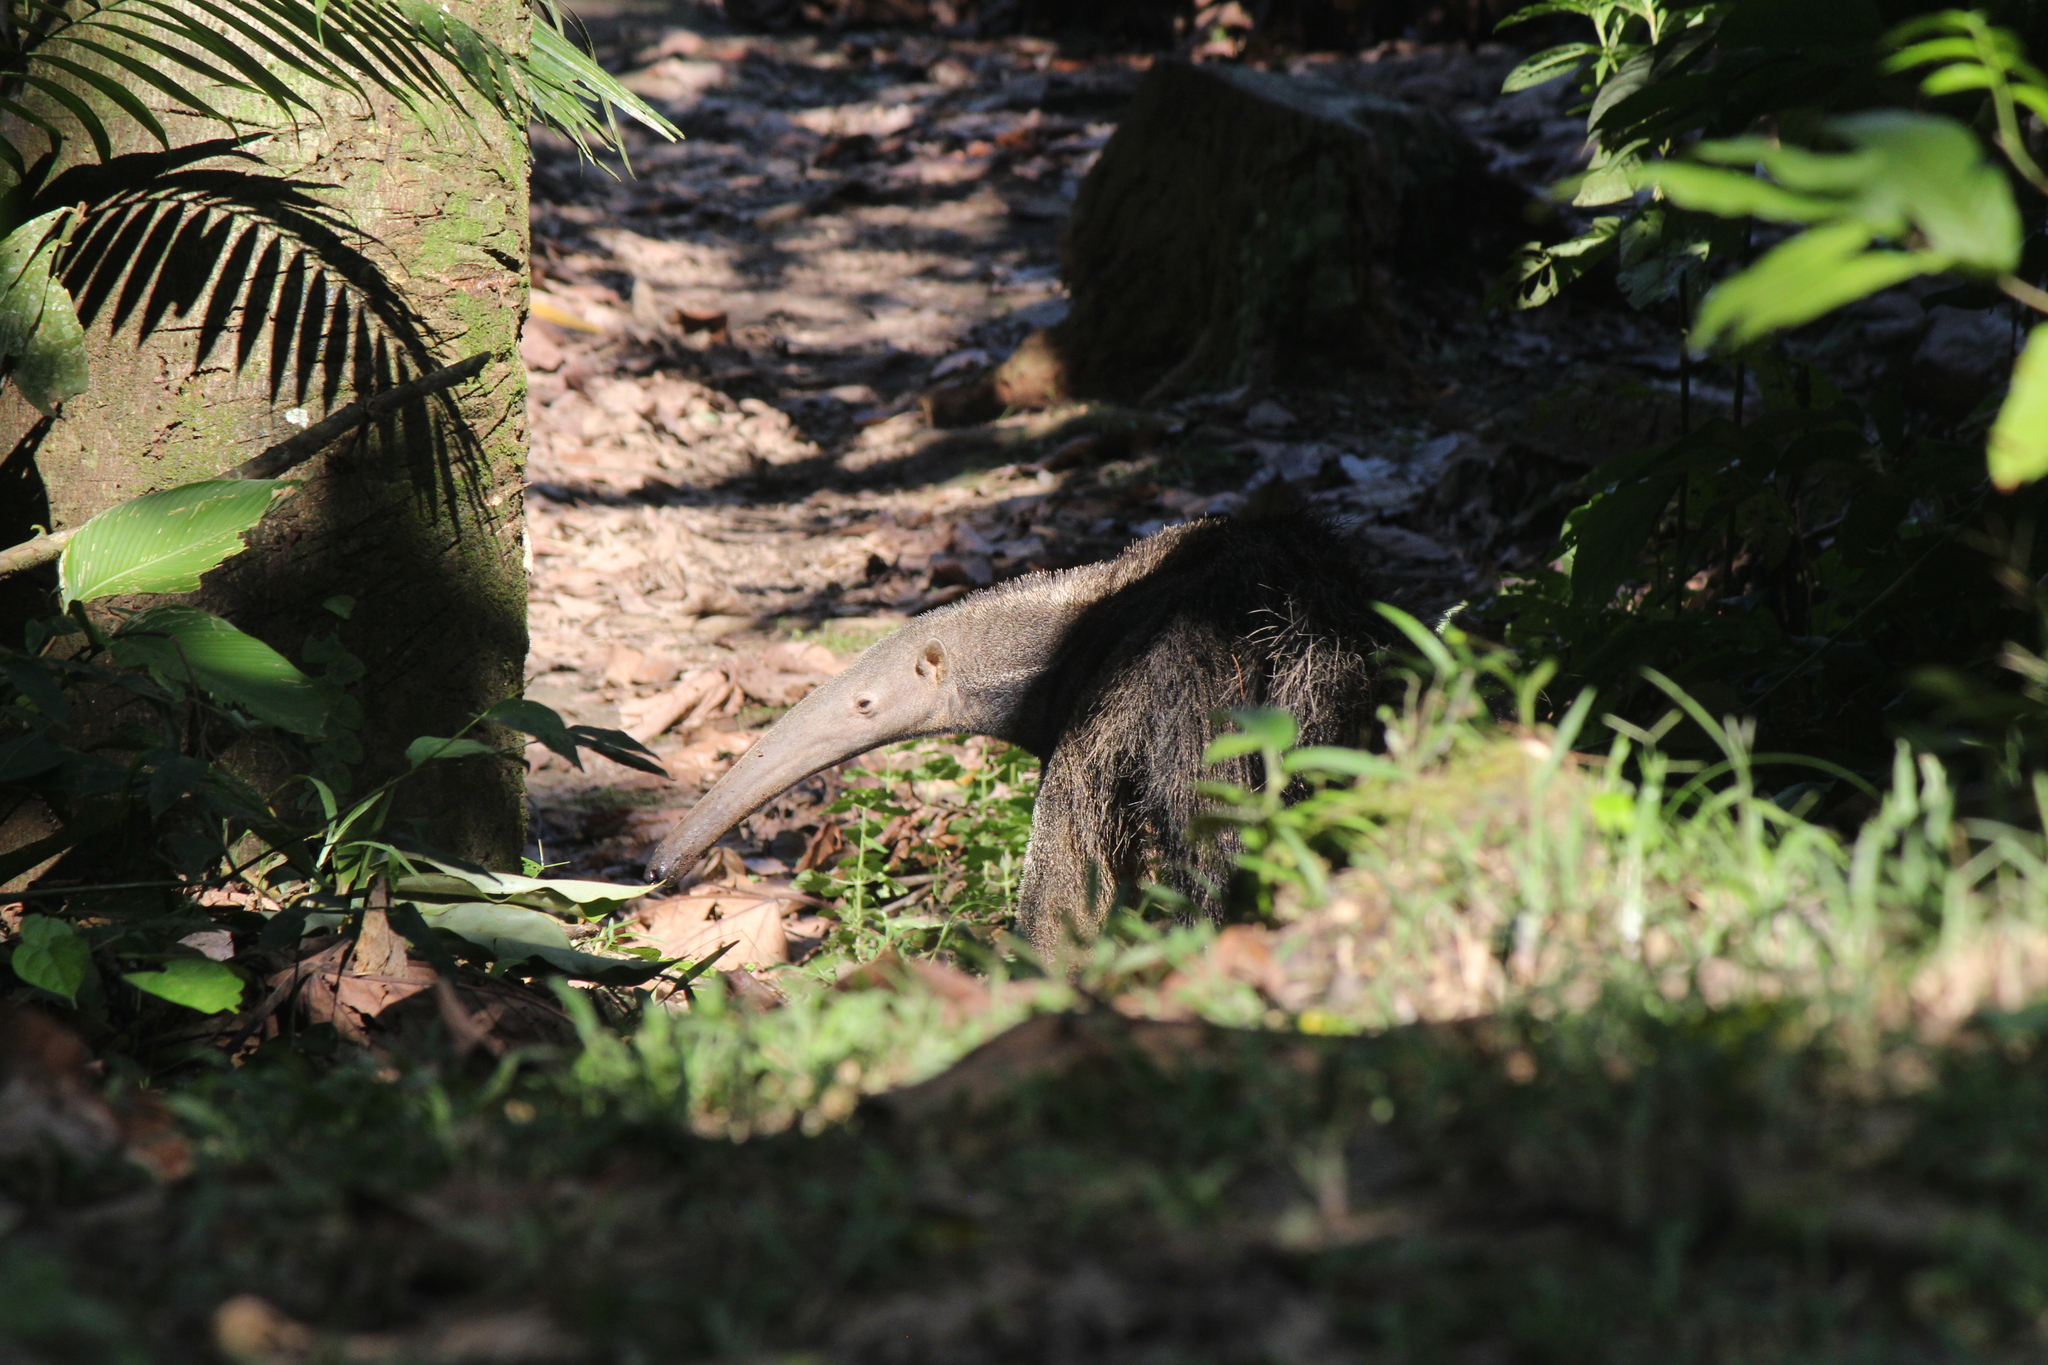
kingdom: Animalia
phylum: Chordata
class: Mammalia
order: Pilosa
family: Myrmecophagidae
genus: Myrmecophaga
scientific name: Myrmecophaga tridactyla
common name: Giant anteater
